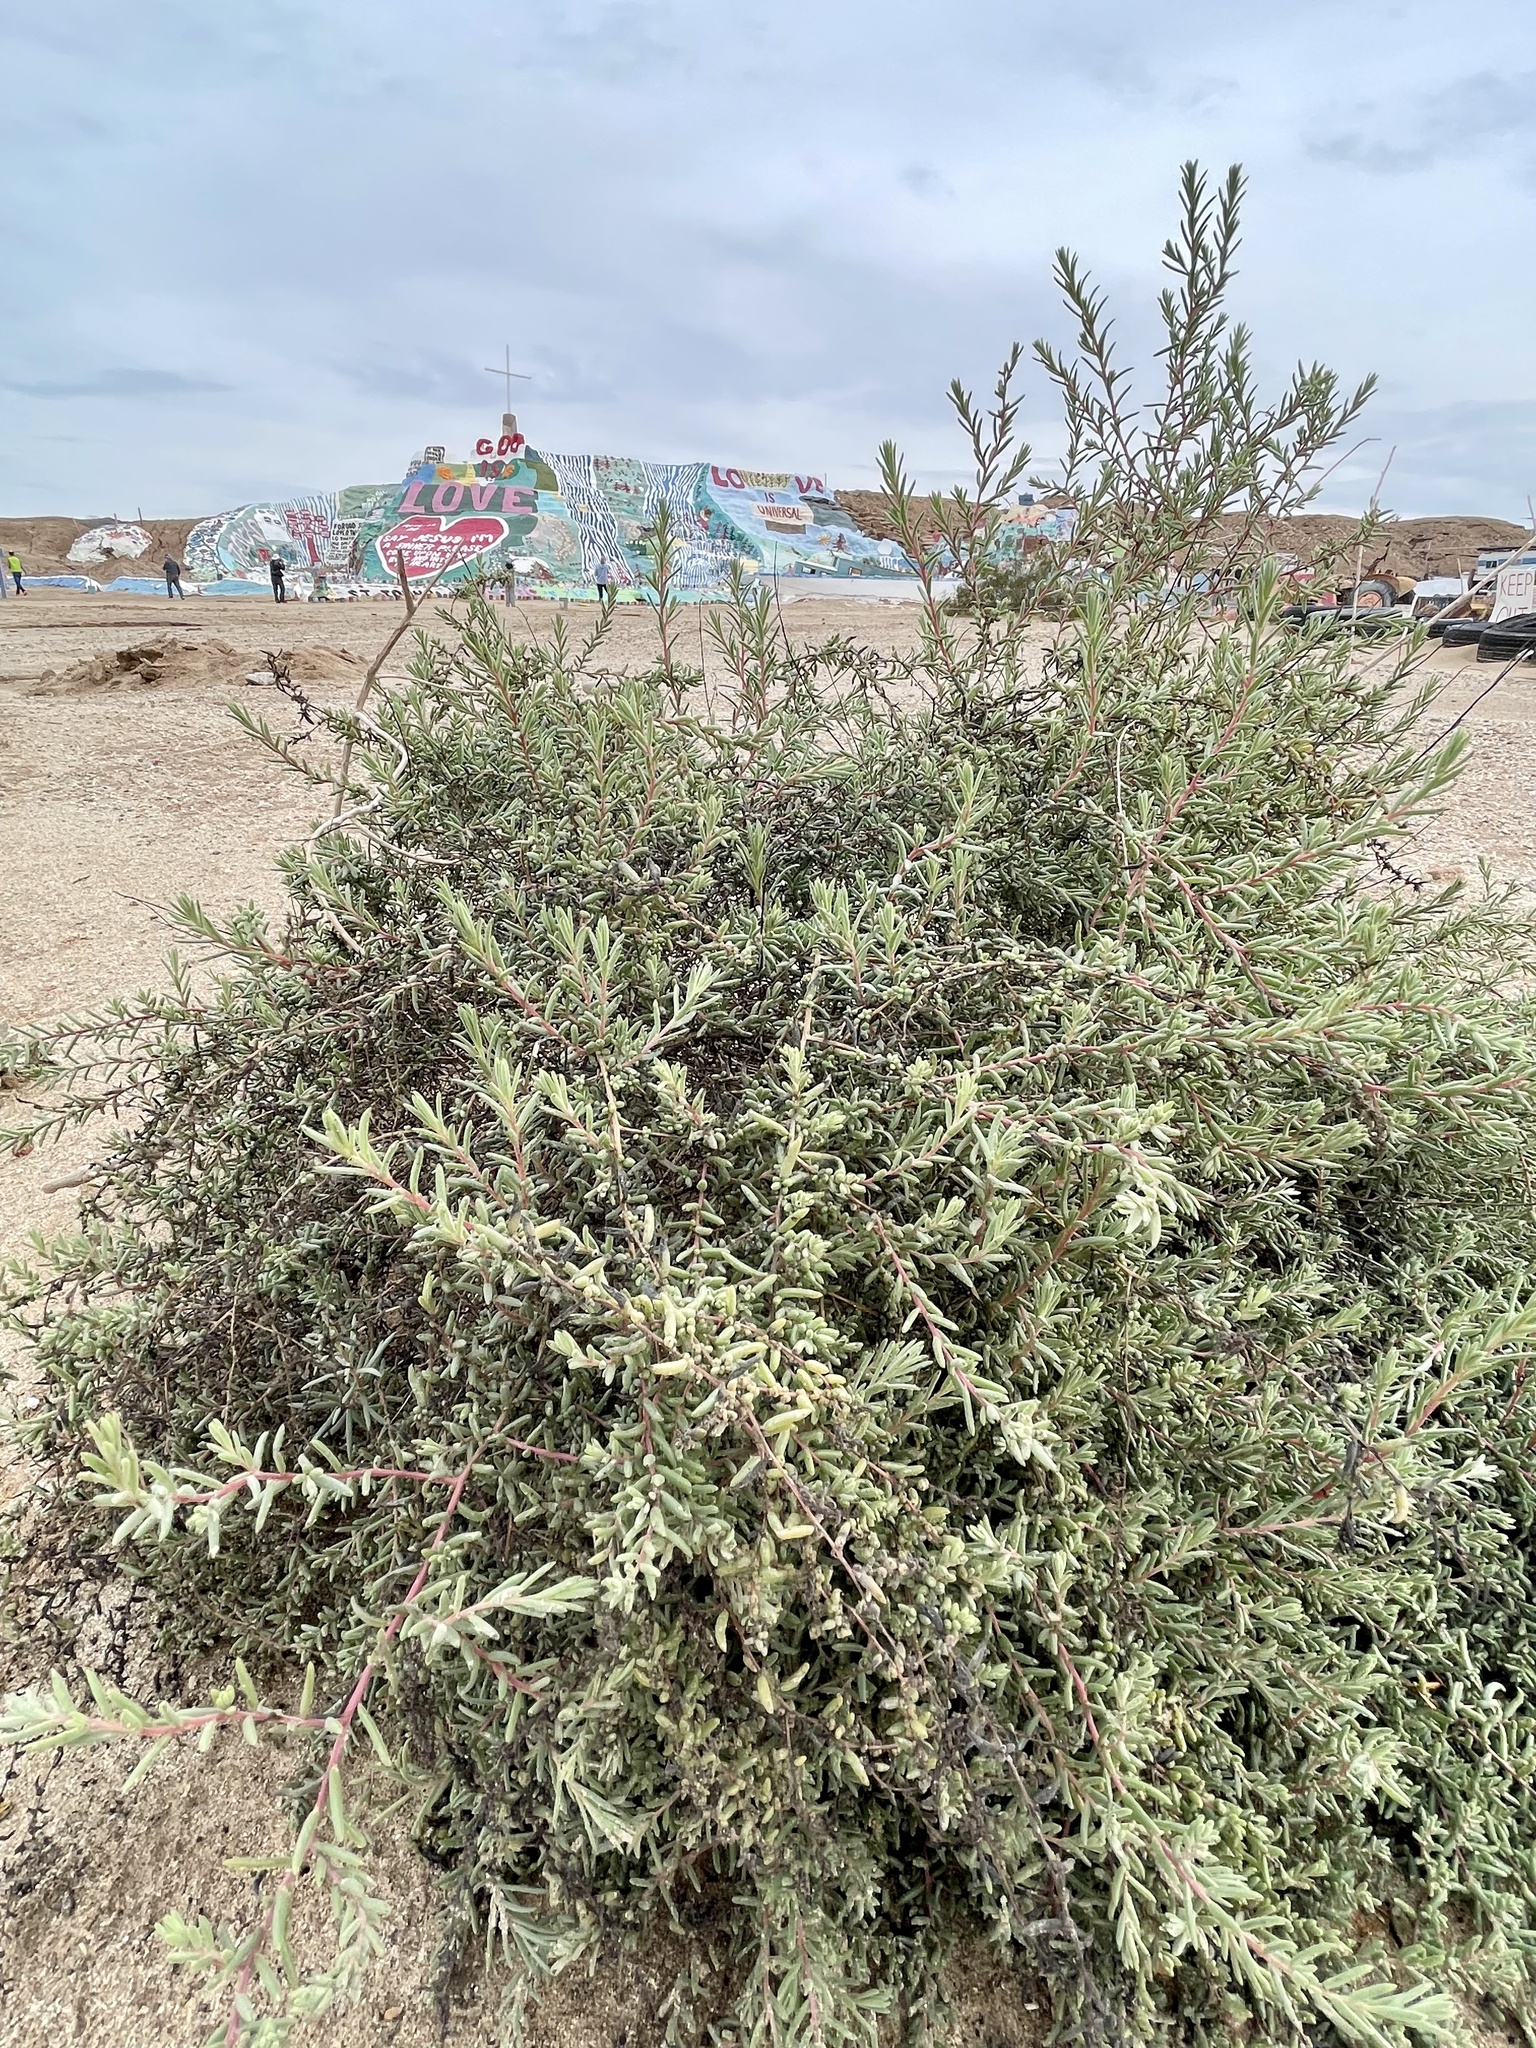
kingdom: Plantae
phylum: Tracheophyta
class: Magnoliopsida
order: Caryophyllales
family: Amaranthaceae
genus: Suaeda
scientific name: Suaeda nigra
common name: Bush seepweed
